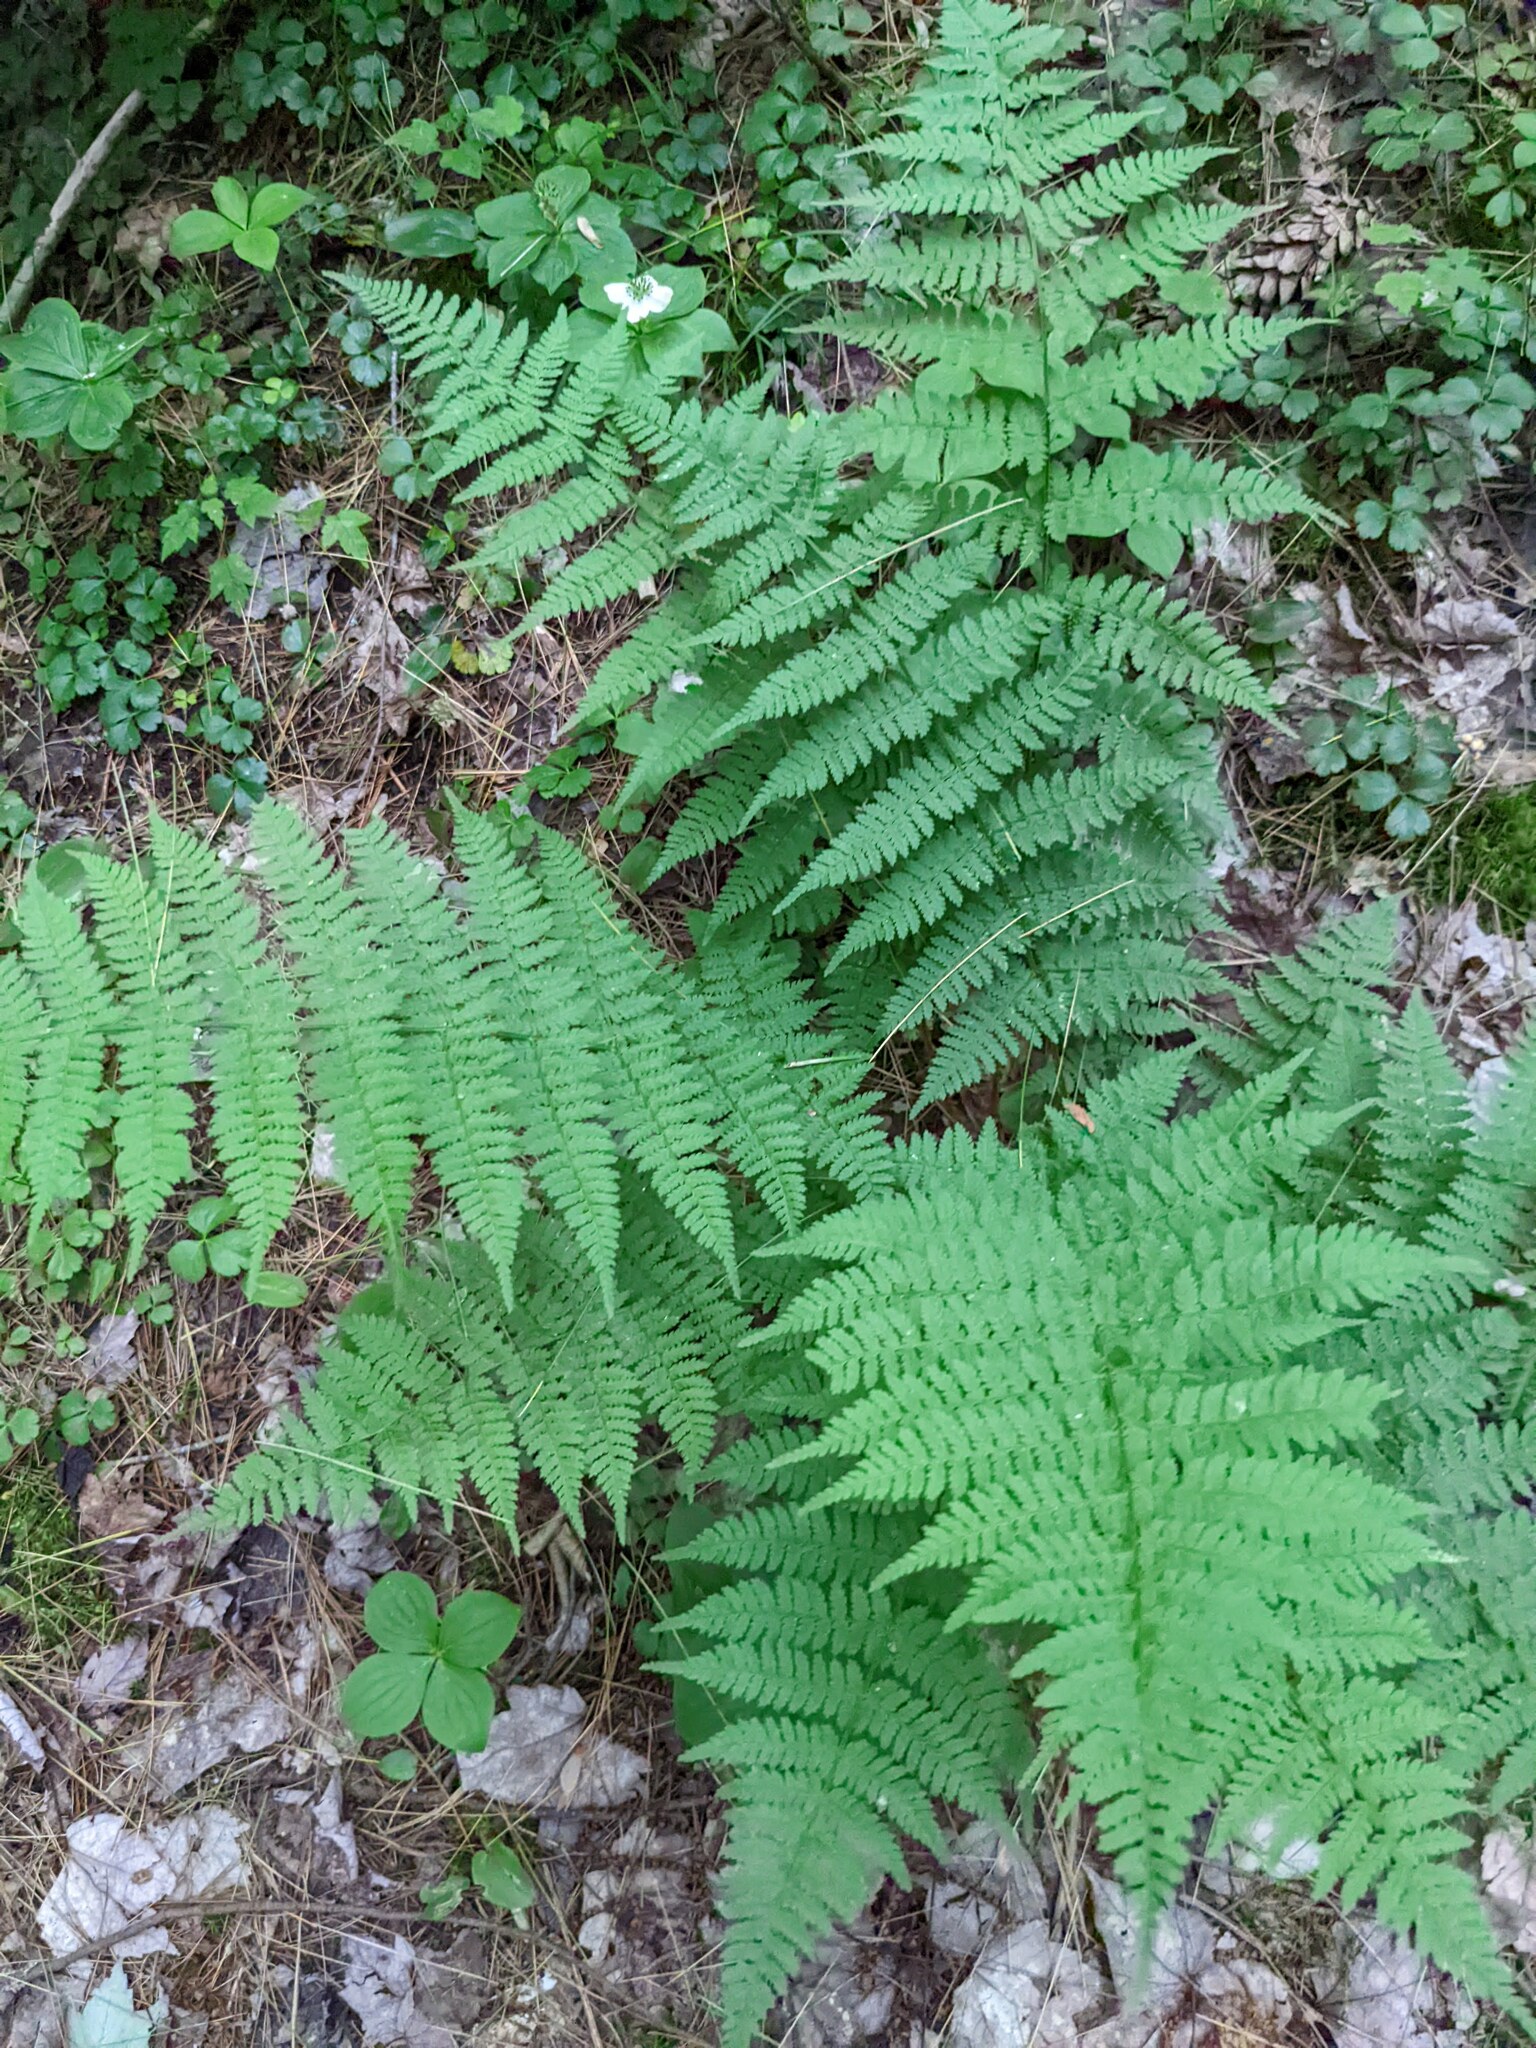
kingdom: Plantae
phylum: Tracheophyta
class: Polypodiopsida
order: Polypodiales
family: Dryopteridaceae
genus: Dryopteris
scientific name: Dryopteris intermedia
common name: Evergreen wood fern
